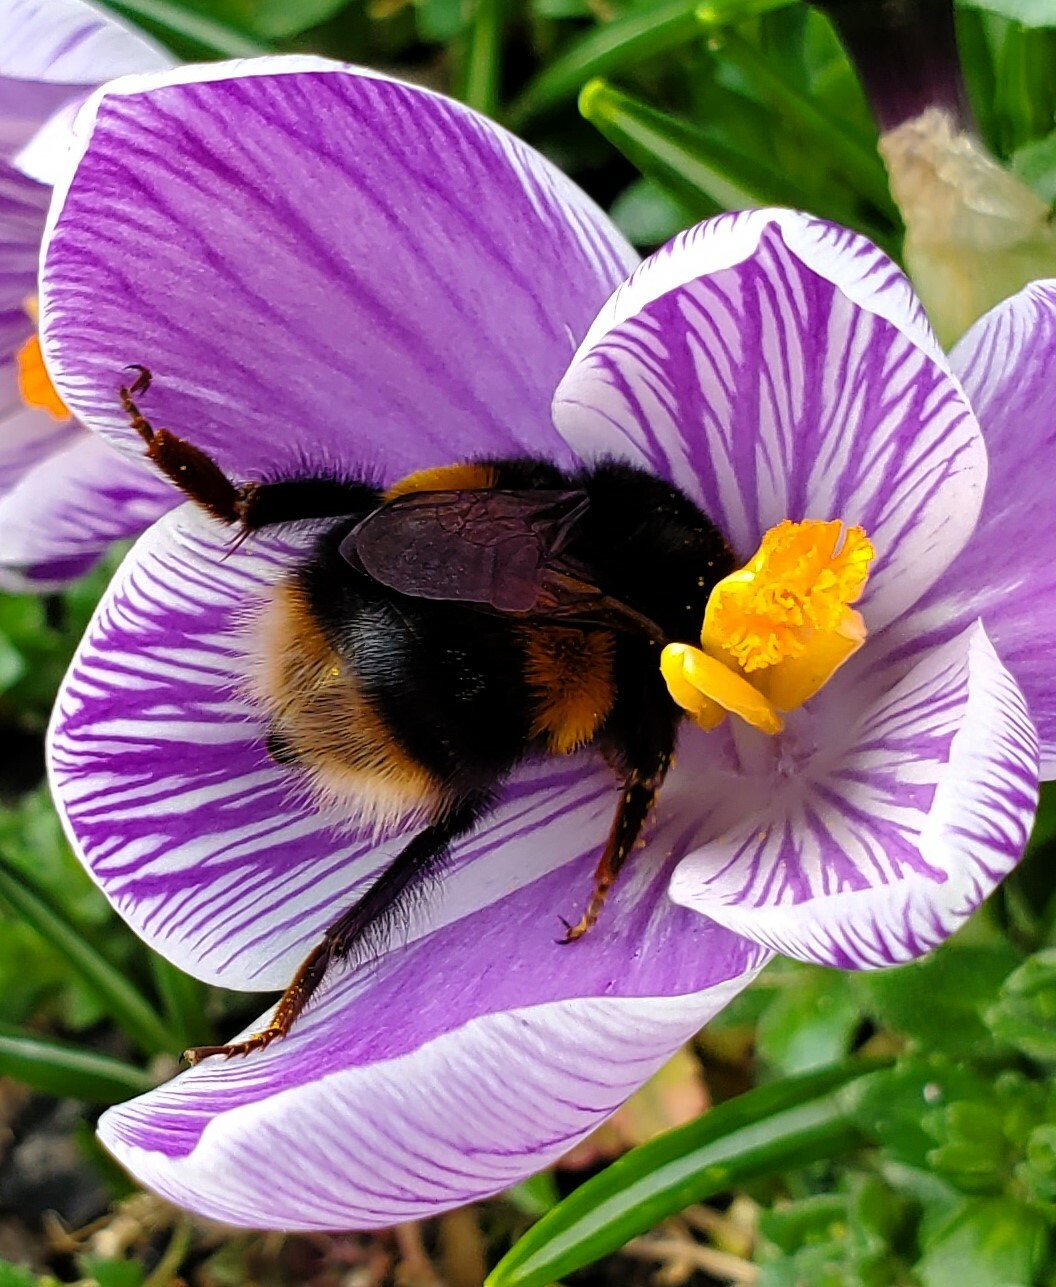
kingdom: Animalia
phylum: Arthropoda
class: Insecta
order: Hymenoptera
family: Apidae
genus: Bombus
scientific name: Bombus terrestris
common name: Buff-tailed bumblebee
